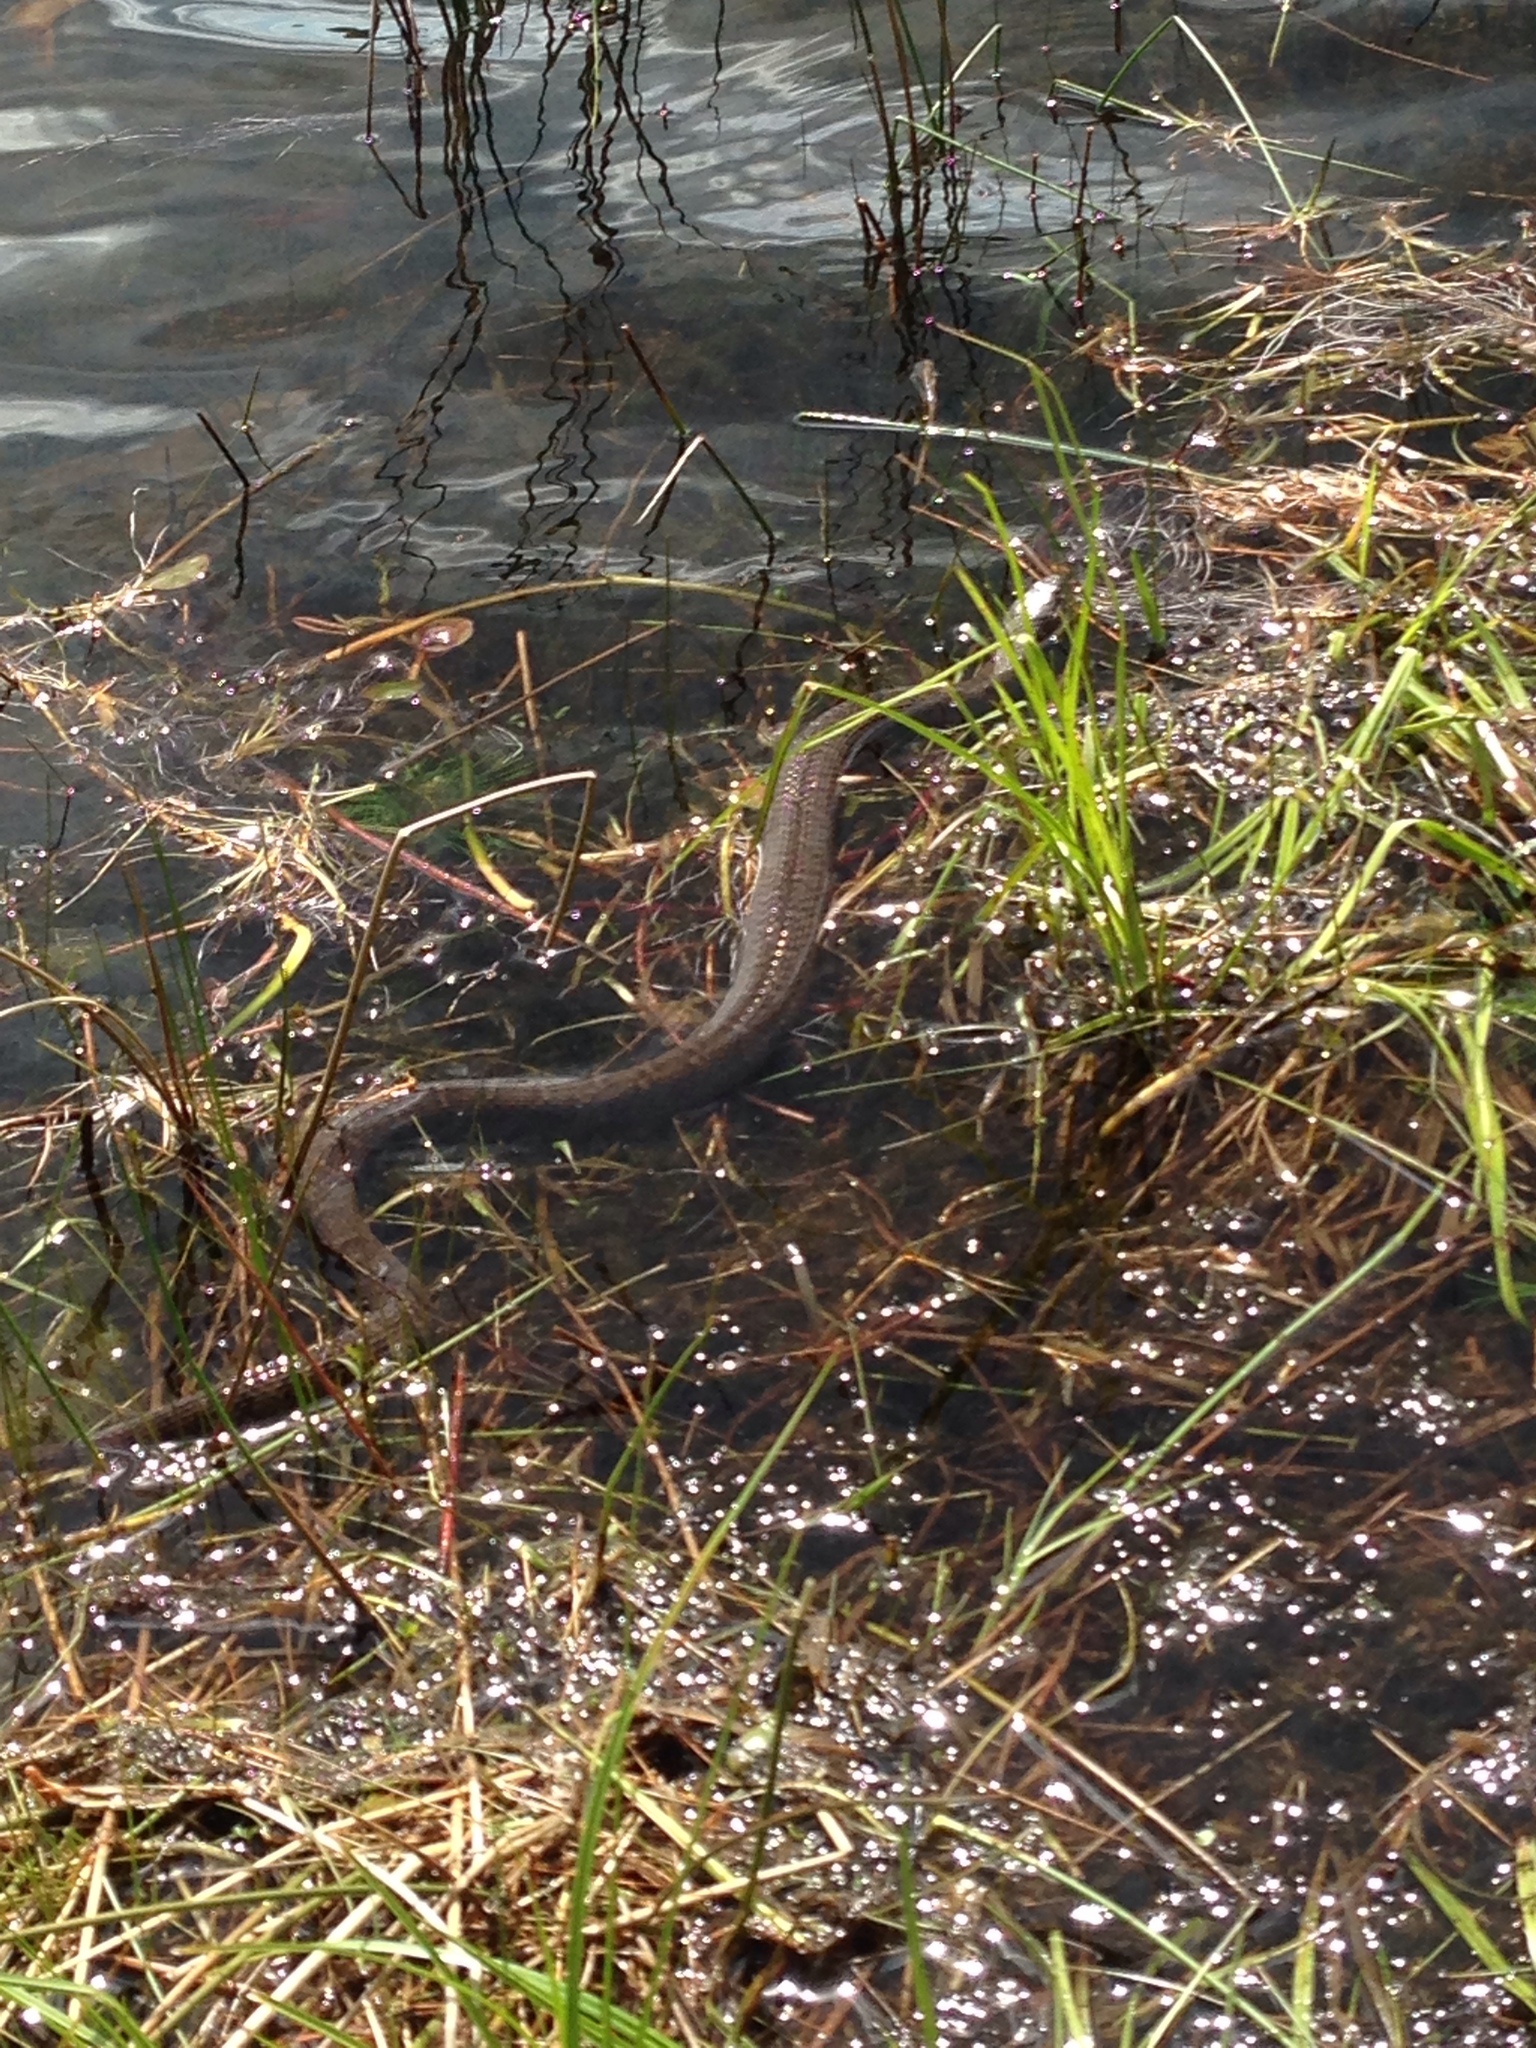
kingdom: Animalia
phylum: Chordata
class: Squamata
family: Colubridae
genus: Nerodia
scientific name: Nerodia sipedon
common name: Northern water snake
